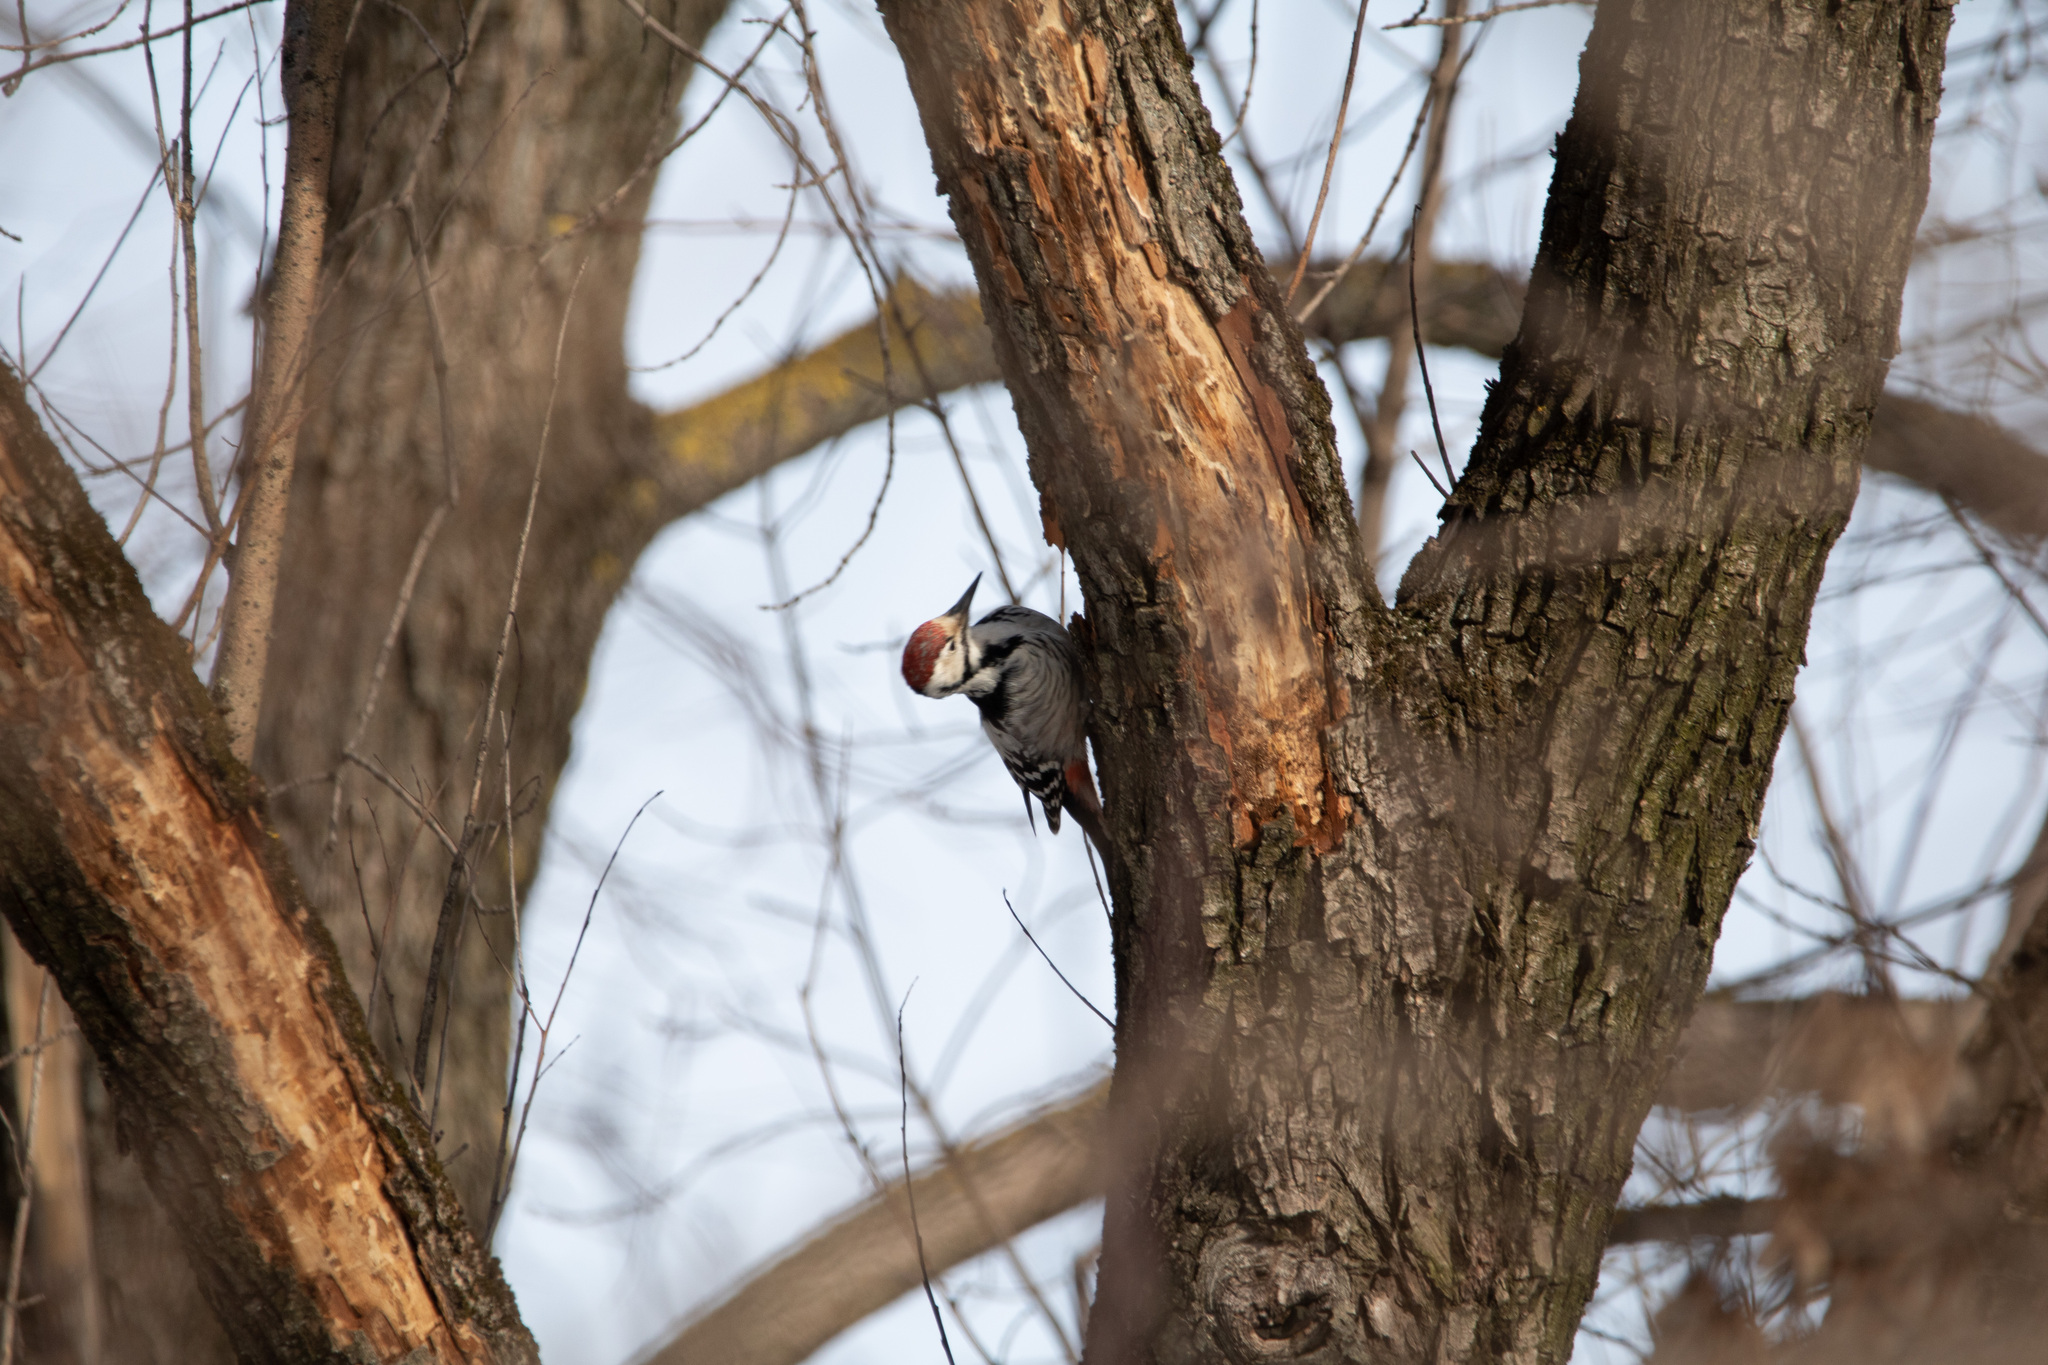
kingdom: Animalia
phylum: Chordata
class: Aves
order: Piciformes
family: Picidae
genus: Dendrocopos
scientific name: Dendrocopos leucotos
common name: White-backed woodpecker
